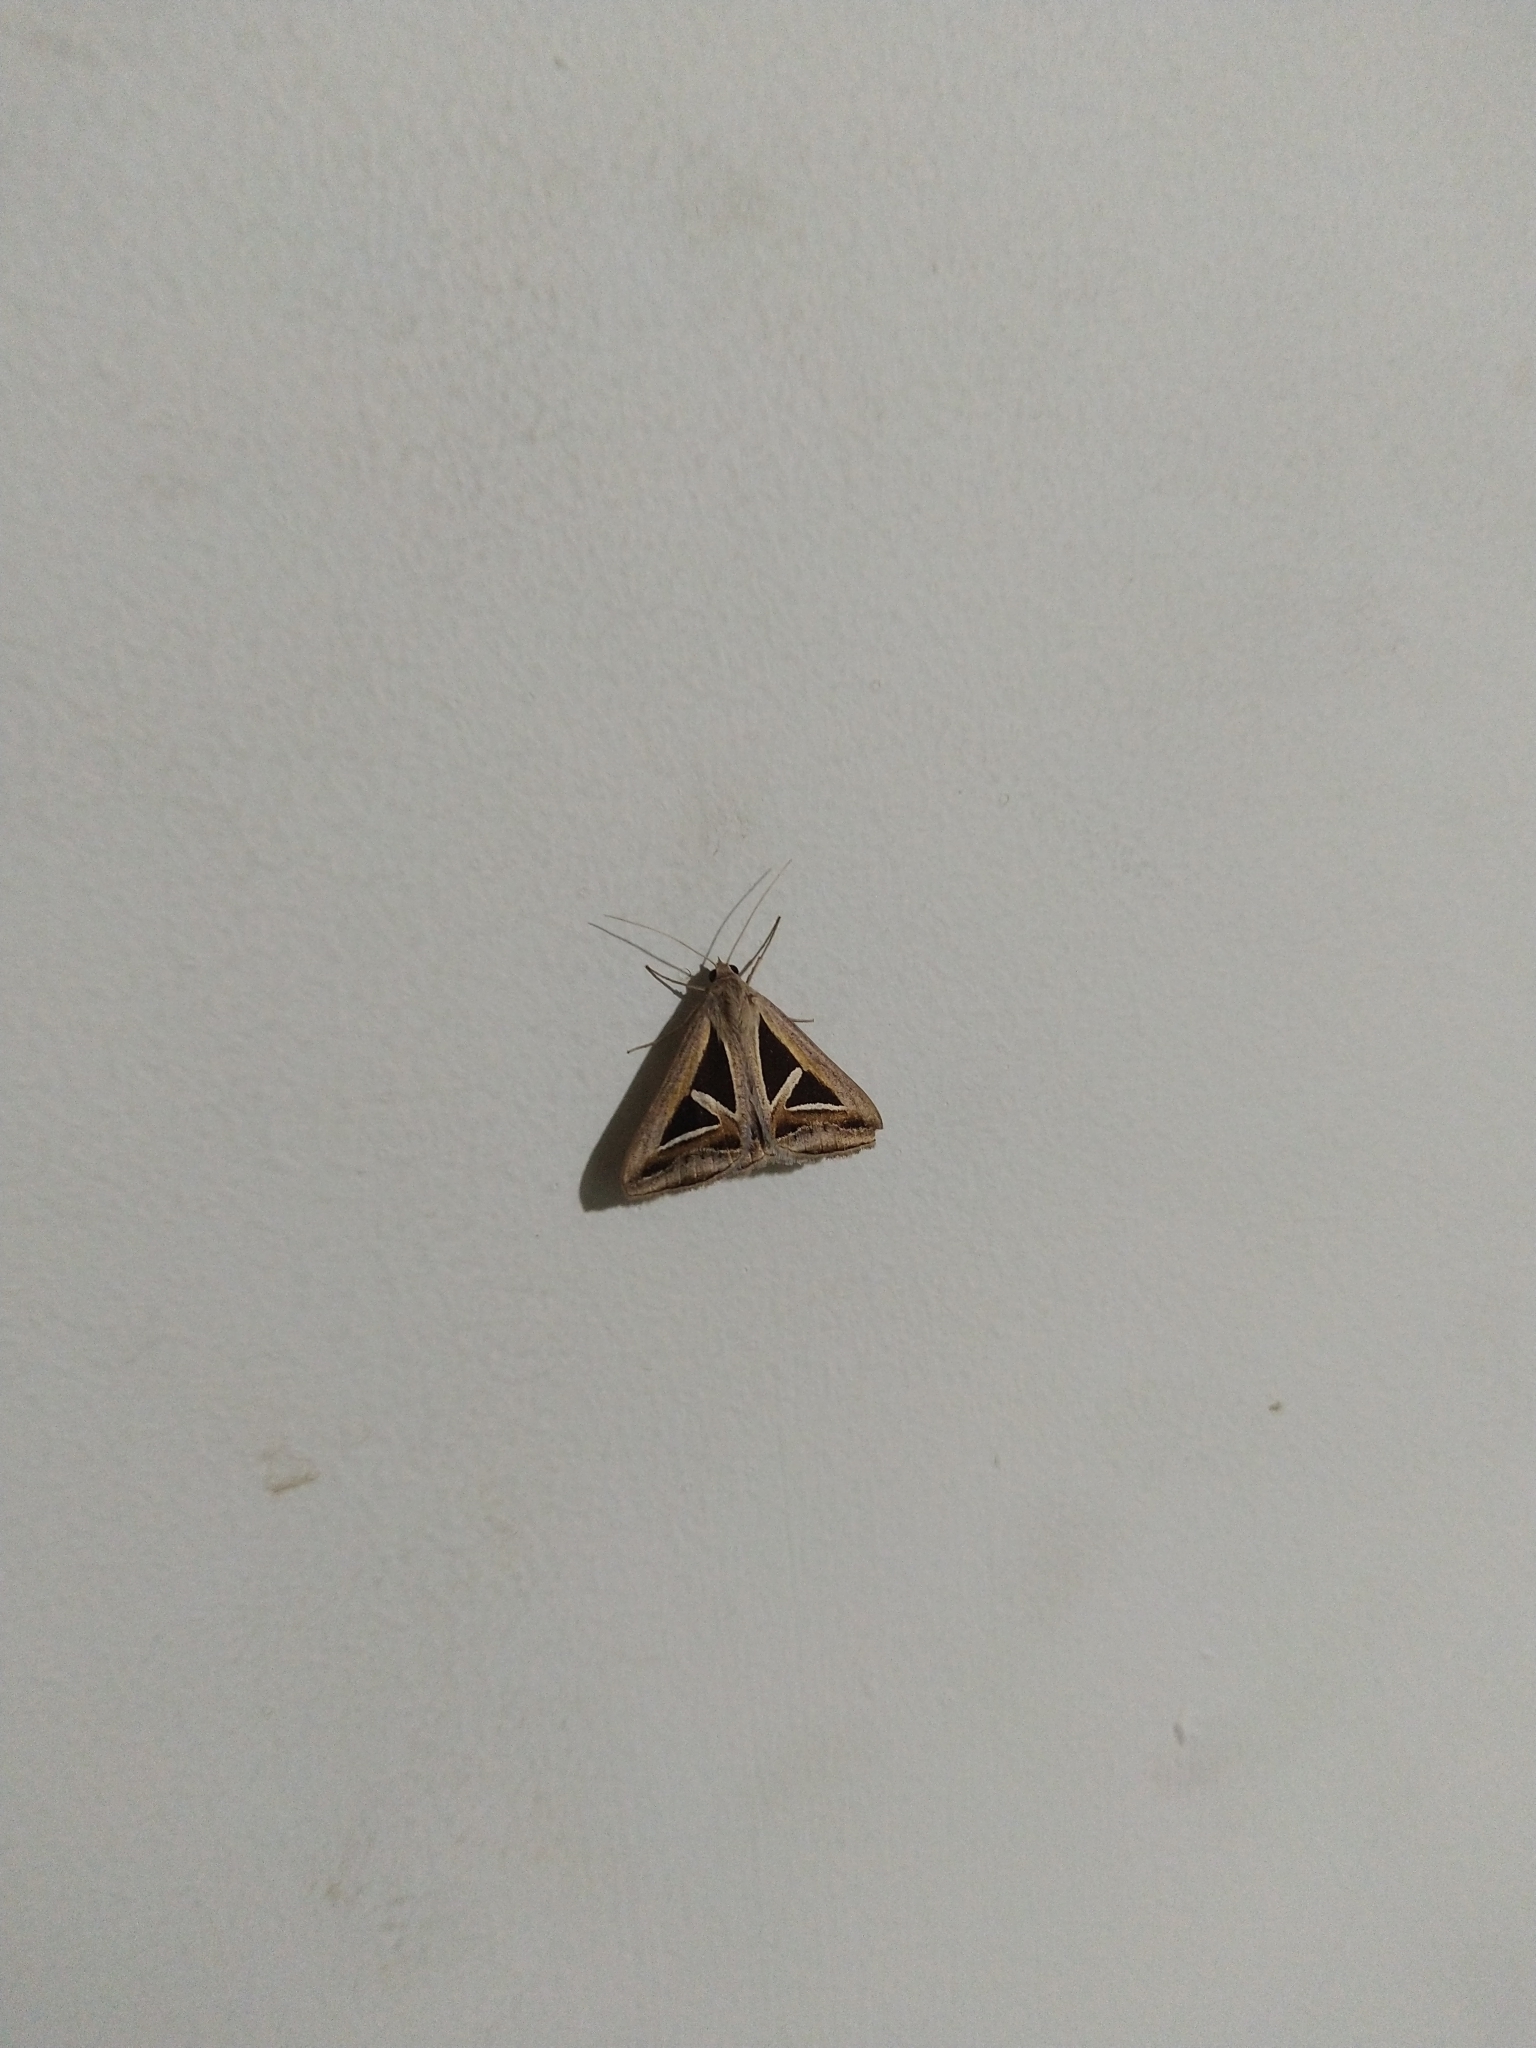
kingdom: Animalia
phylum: Arthropoda
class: Insecta
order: Lepidoptera
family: Erebidae
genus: Trigonodes
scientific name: Trigonodes hyppasia
